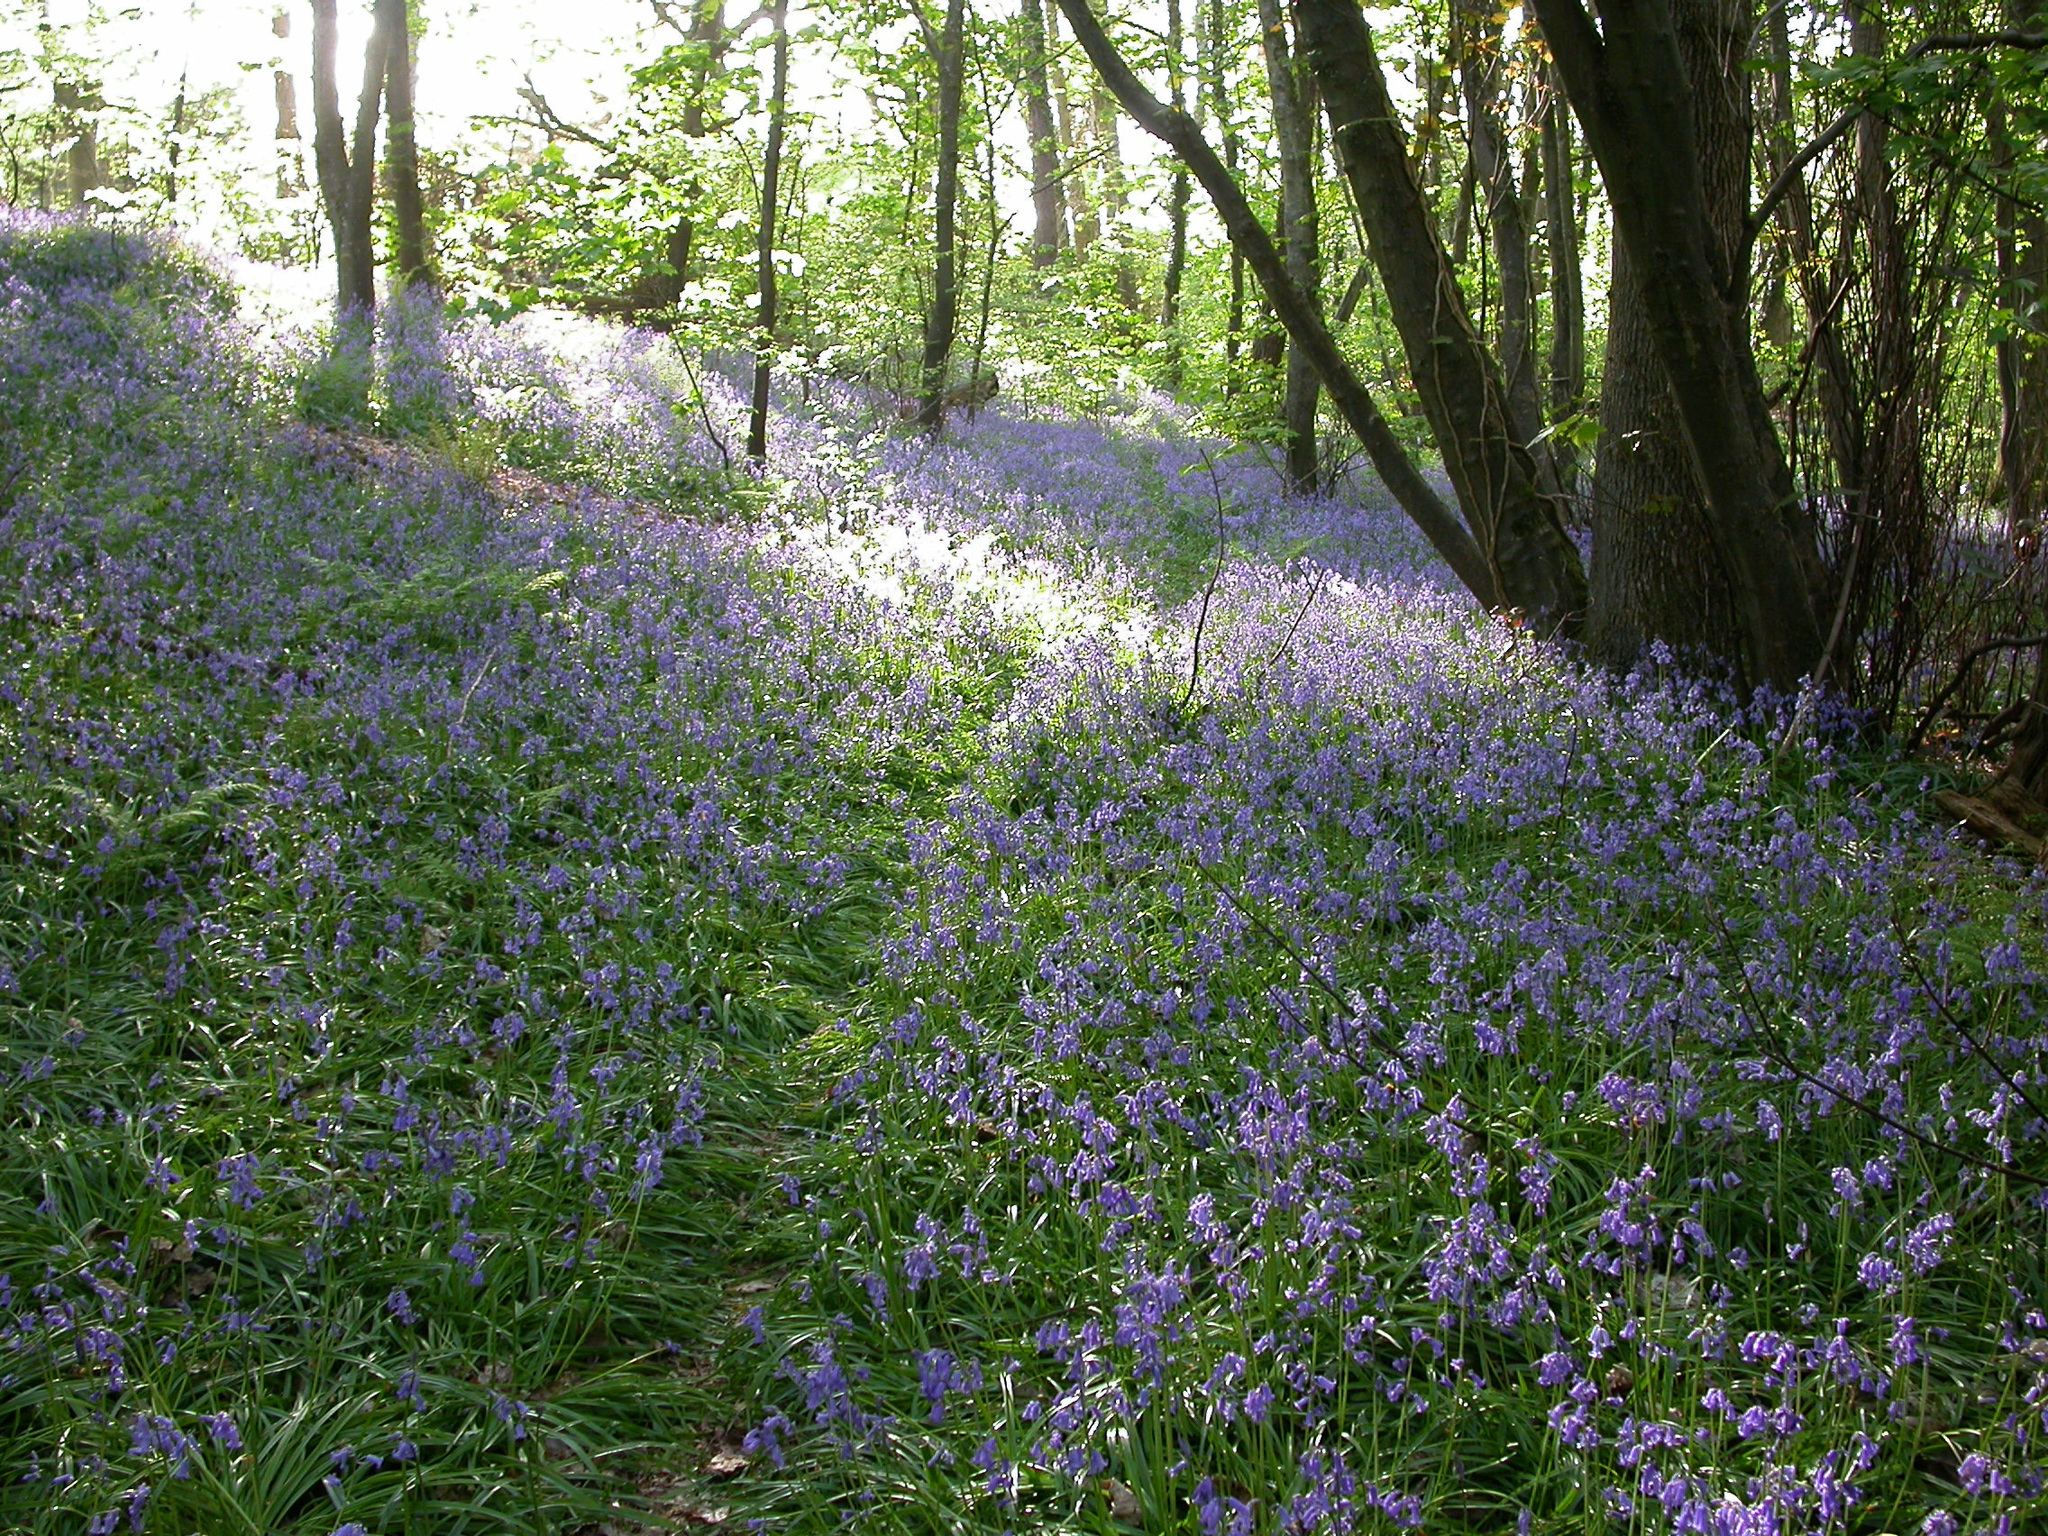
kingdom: Plantae
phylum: Tracheophyta
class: Liliopsida
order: Asparagales
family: Asparagaceae
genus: Hyacinthoides
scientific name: Hyacinthoides non-scripta
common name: Bluebell
